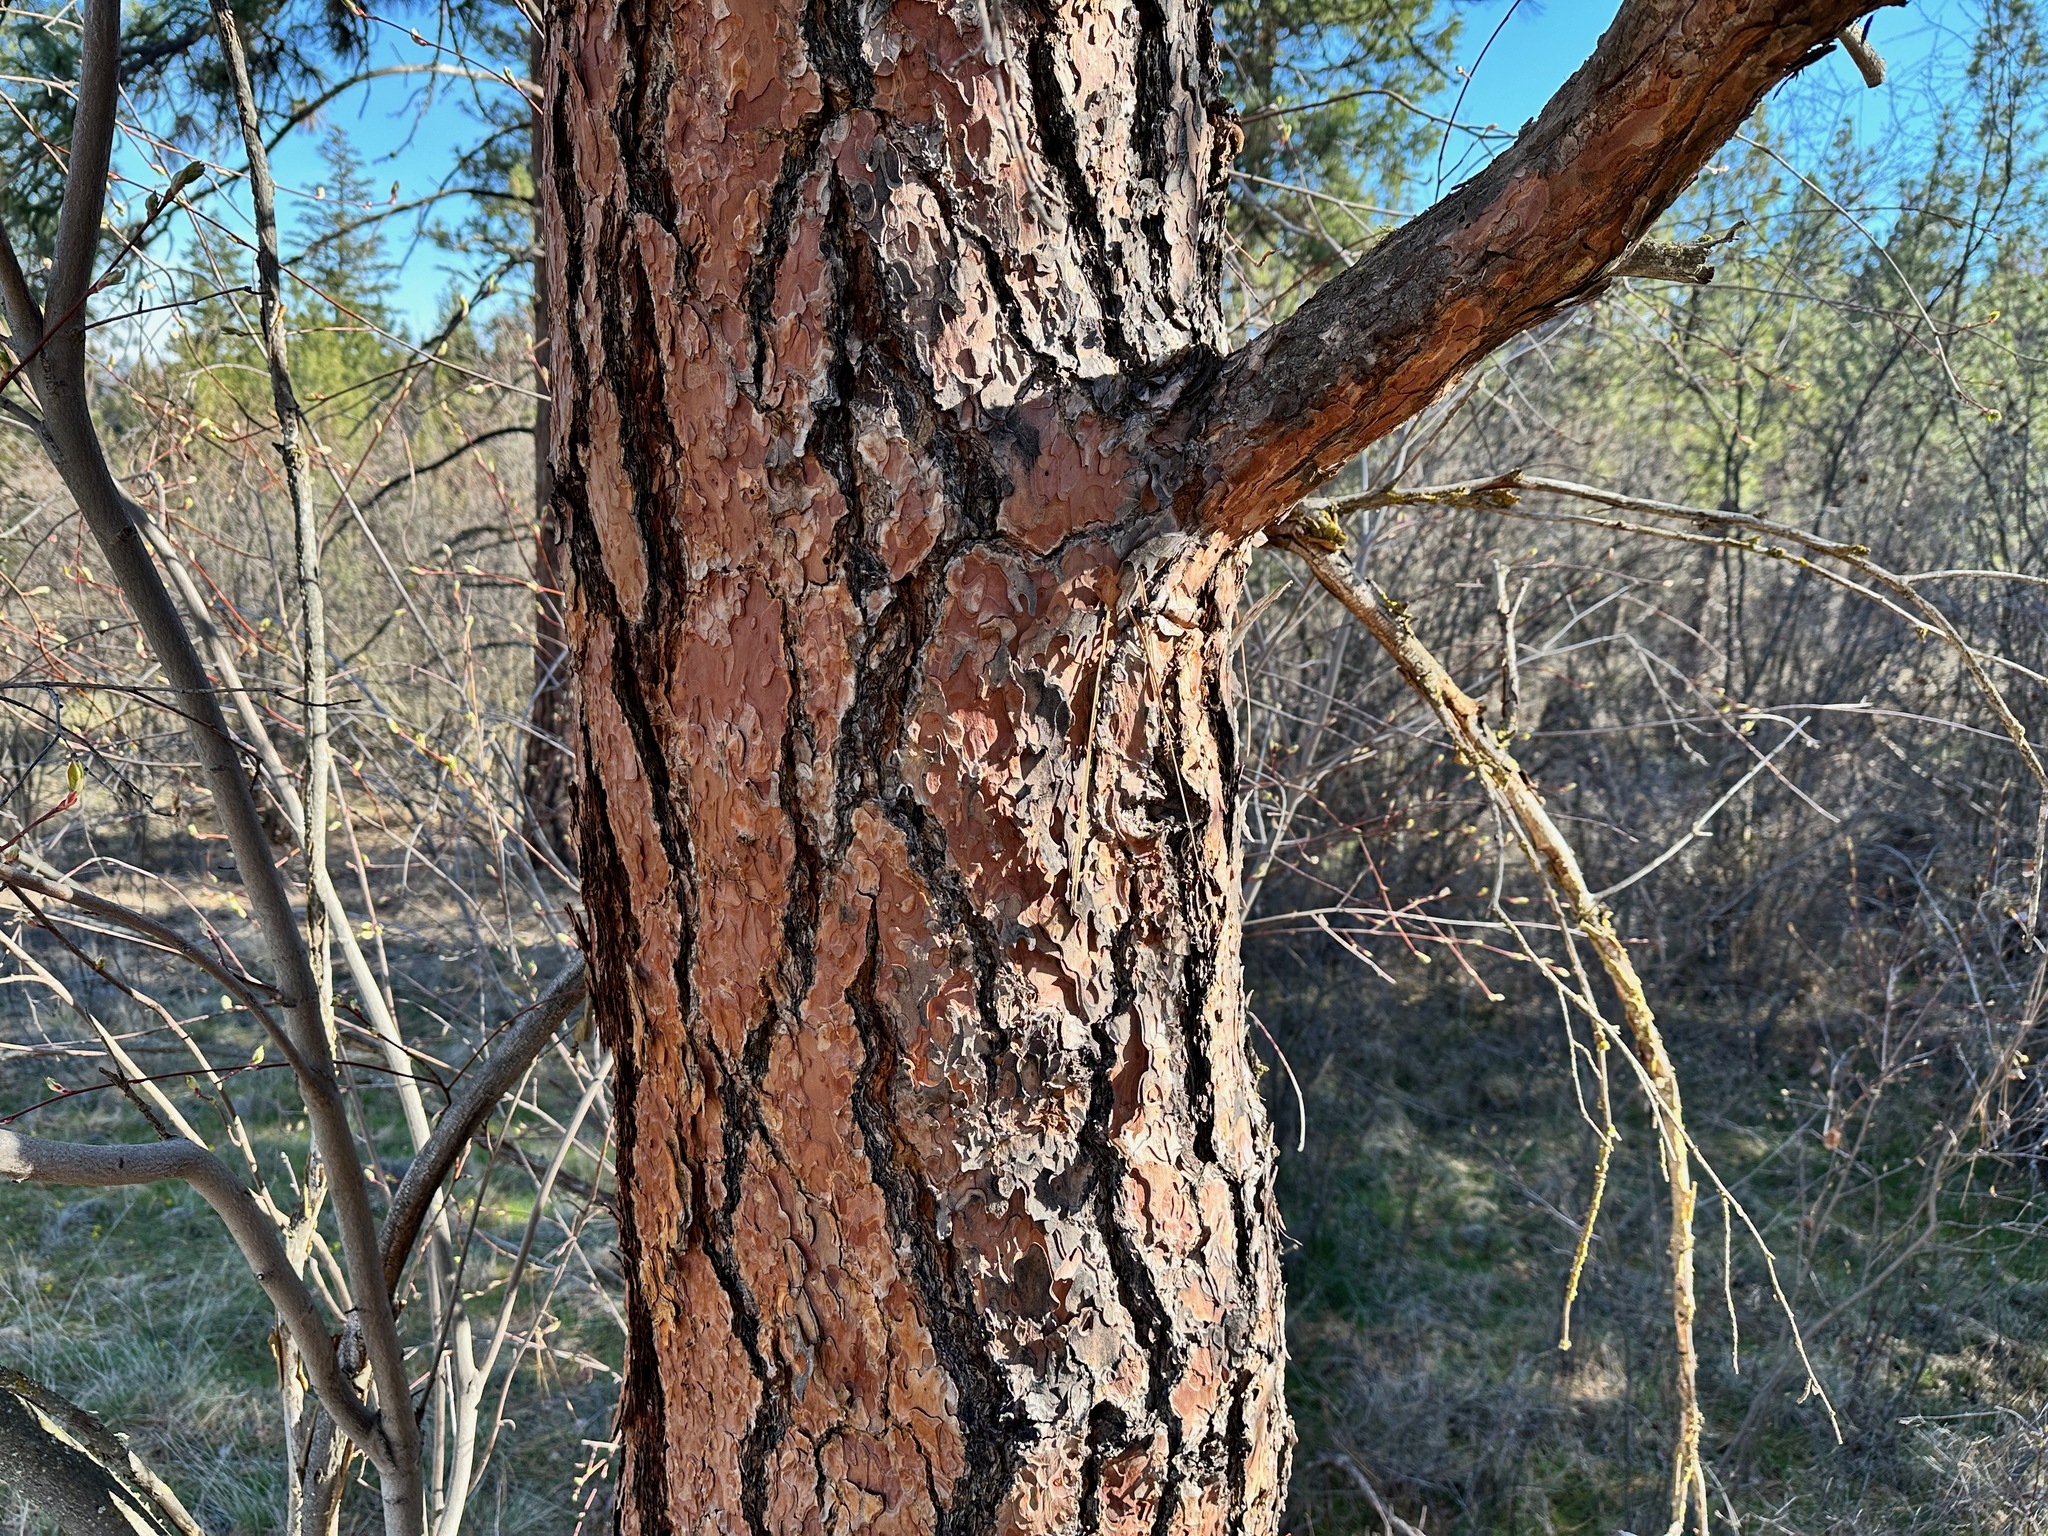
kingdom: Plantae
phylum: Tracheophyta
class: Pinopsida
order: Pinales
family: Pinaceae
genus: Pinus
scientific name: Pinus ponderosa
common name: Western yellow-pine
